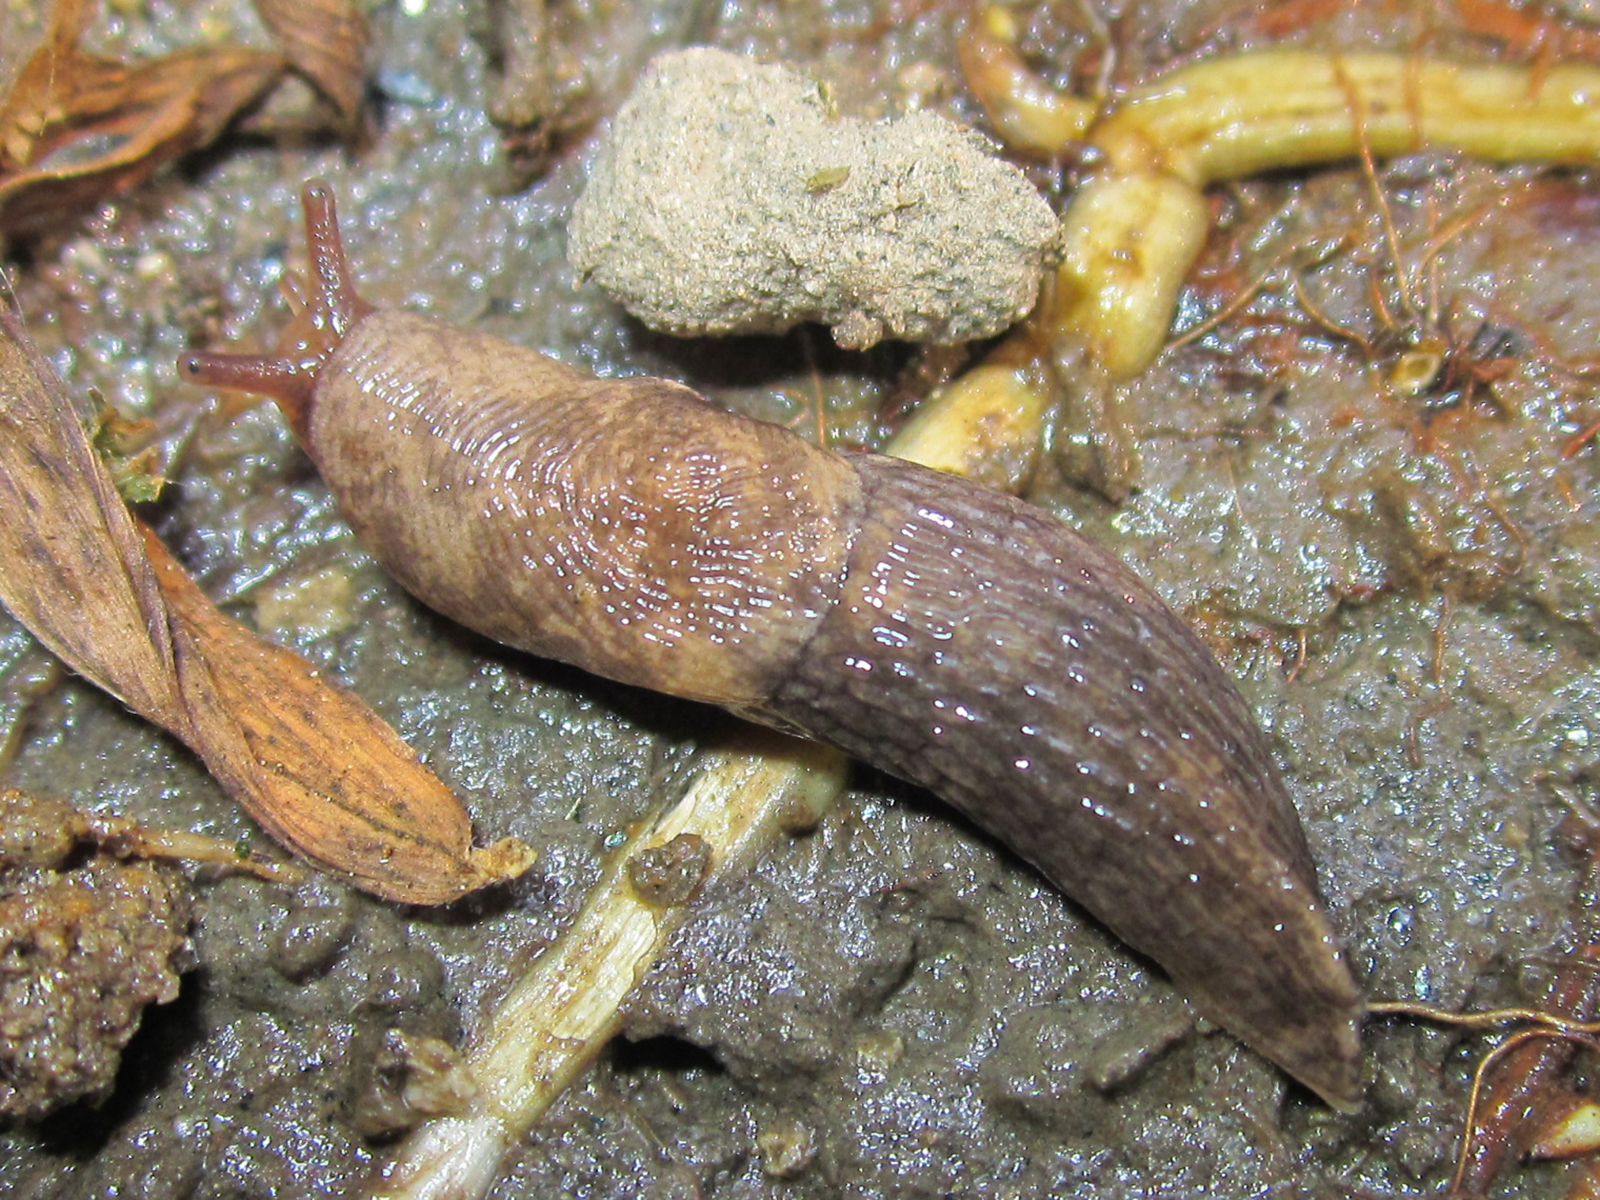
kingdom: Animalia
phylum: Mollusca
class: Gastropoda
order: Stylommatophora
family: Agriolimacidae
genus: Deroceras
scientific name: Deroceras reticulatum
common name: Gray field slug
